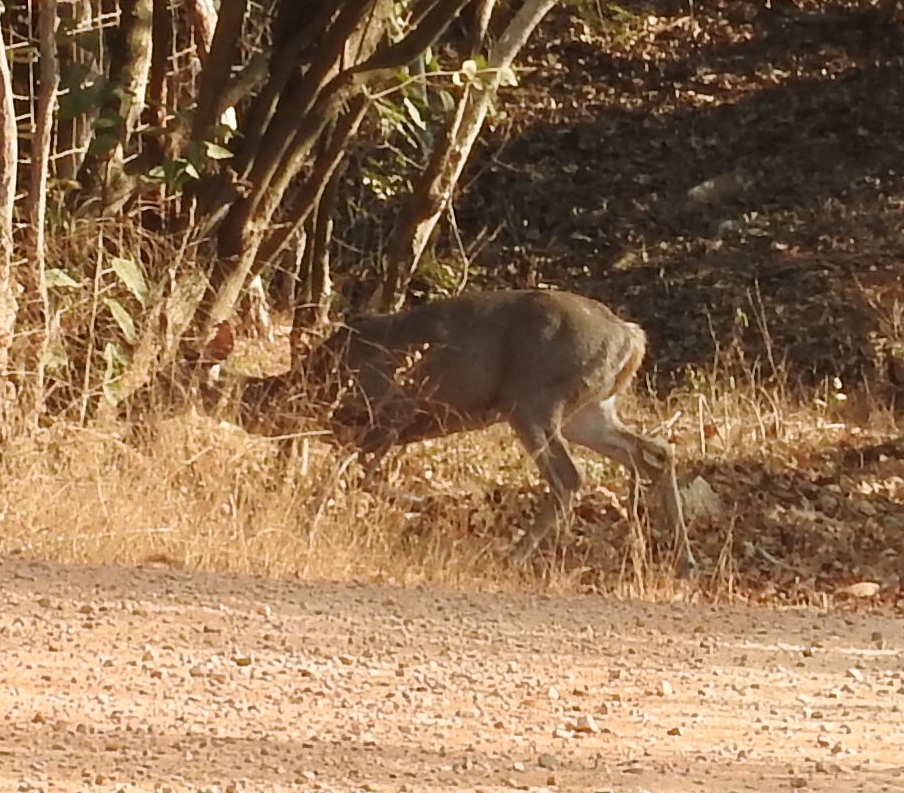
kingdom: Animalia
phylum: Chordata
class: Mammalia
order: Artiodactyla
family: Cervidae
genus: Odocoileus
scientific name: Odocoileus virginianus
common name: White-tailed deer
